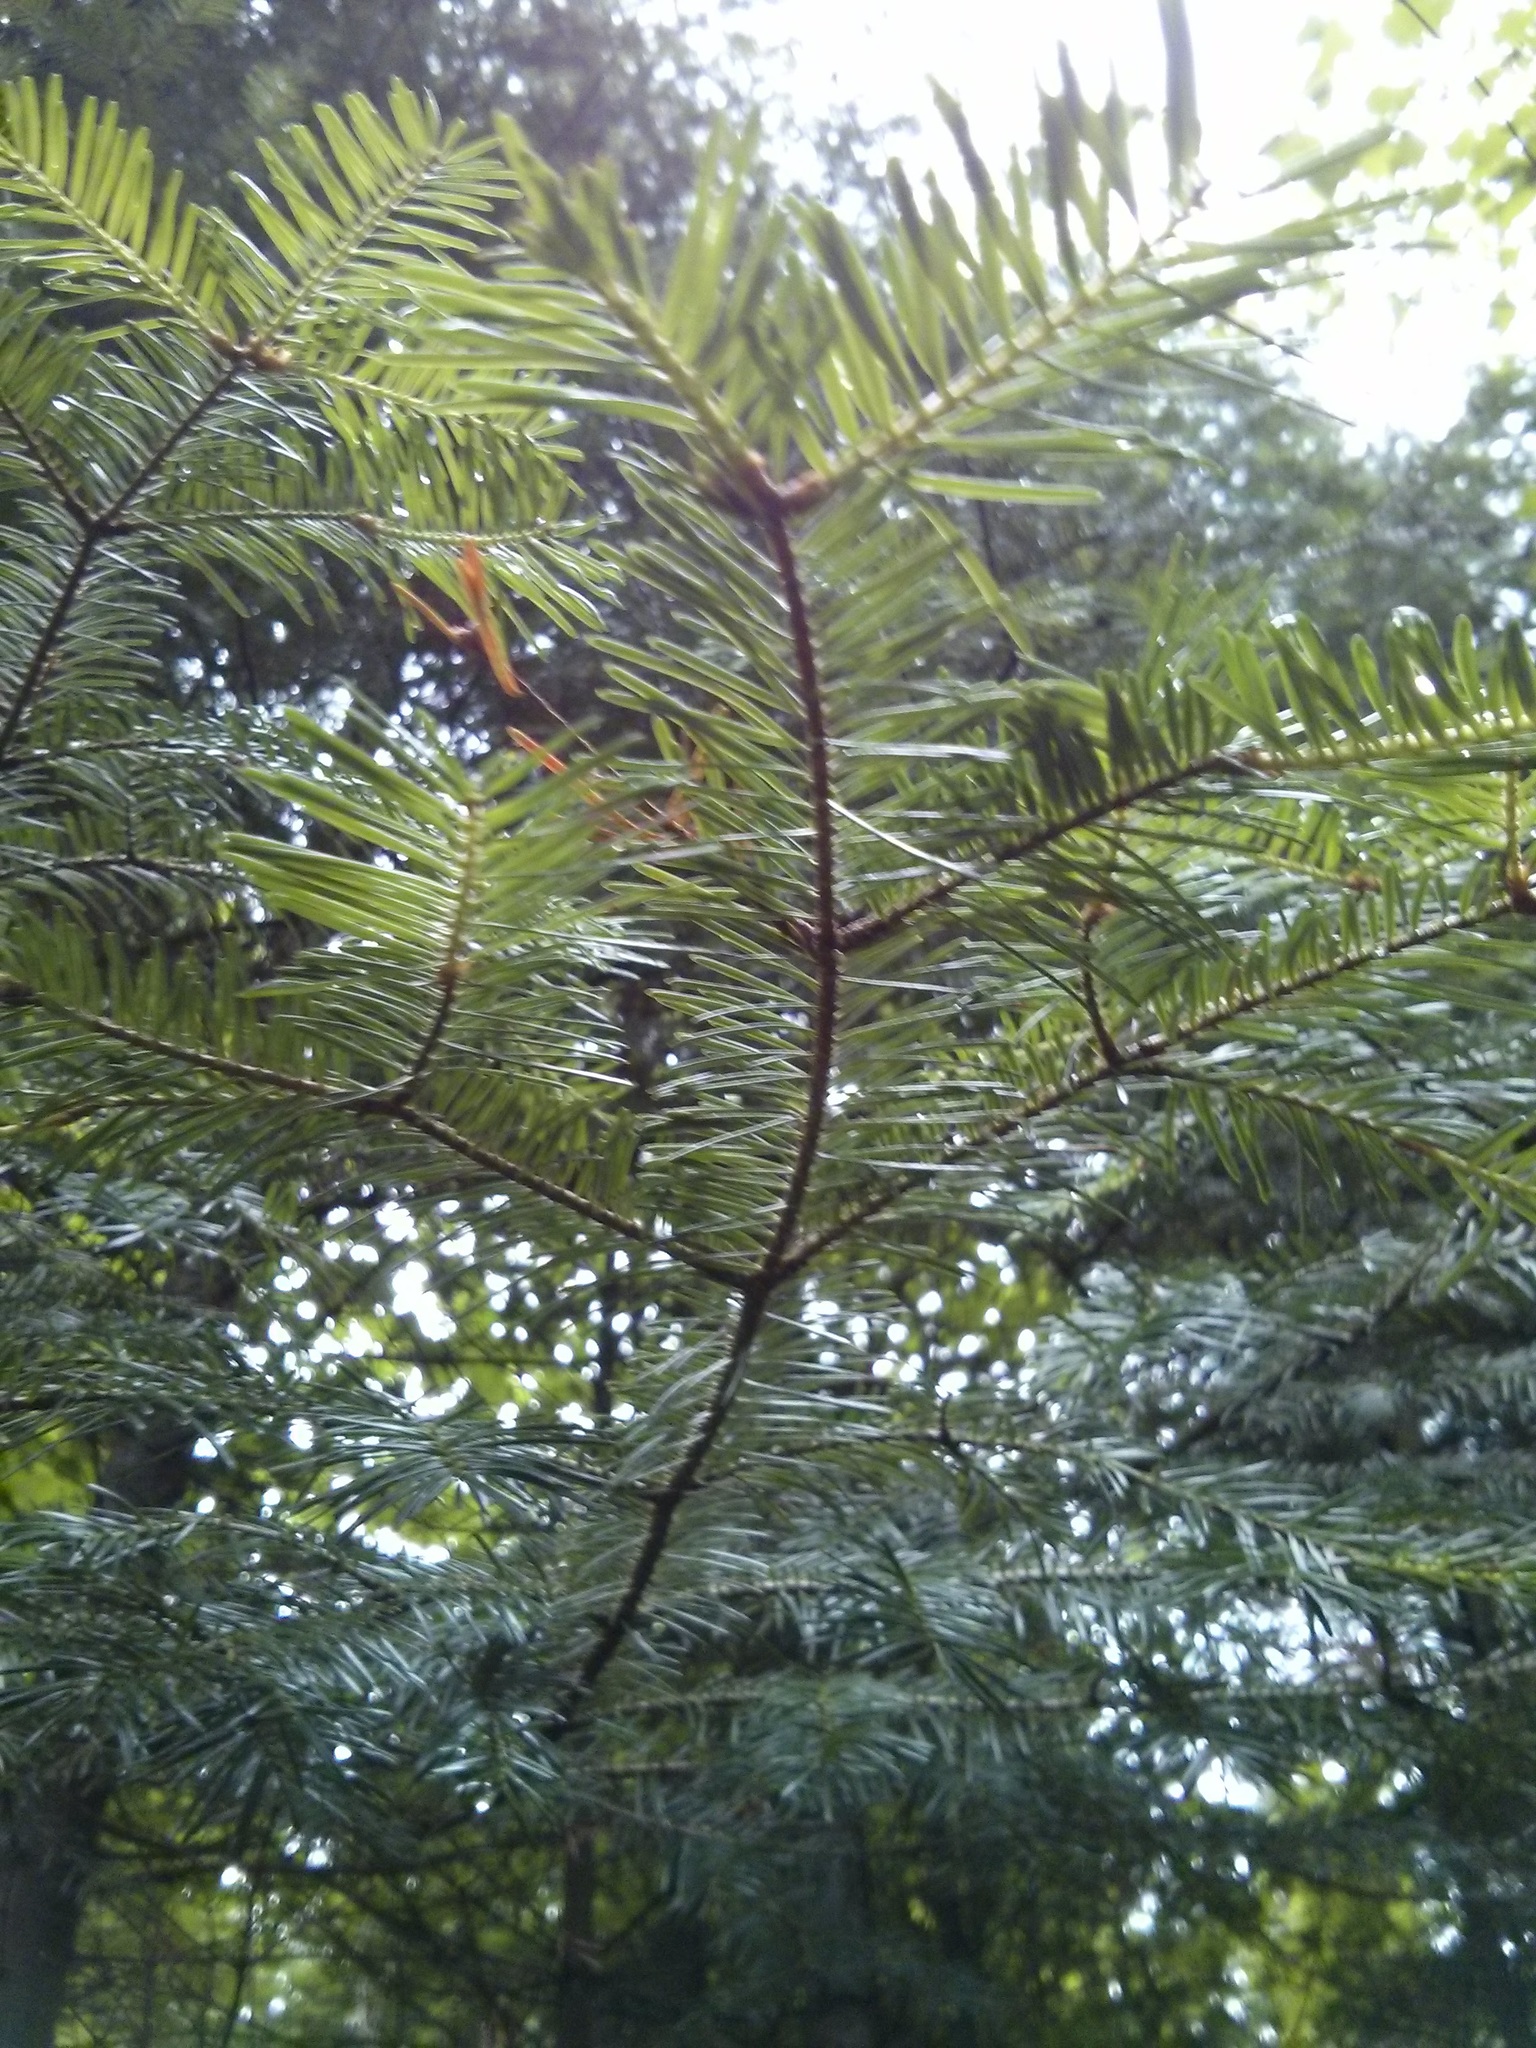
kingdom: Plantae
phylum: Tracheophyta
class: Pinopsida
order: Pinales
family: Pinaceae
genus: Abies
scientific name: Abies balsamea
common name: Balsam fir
